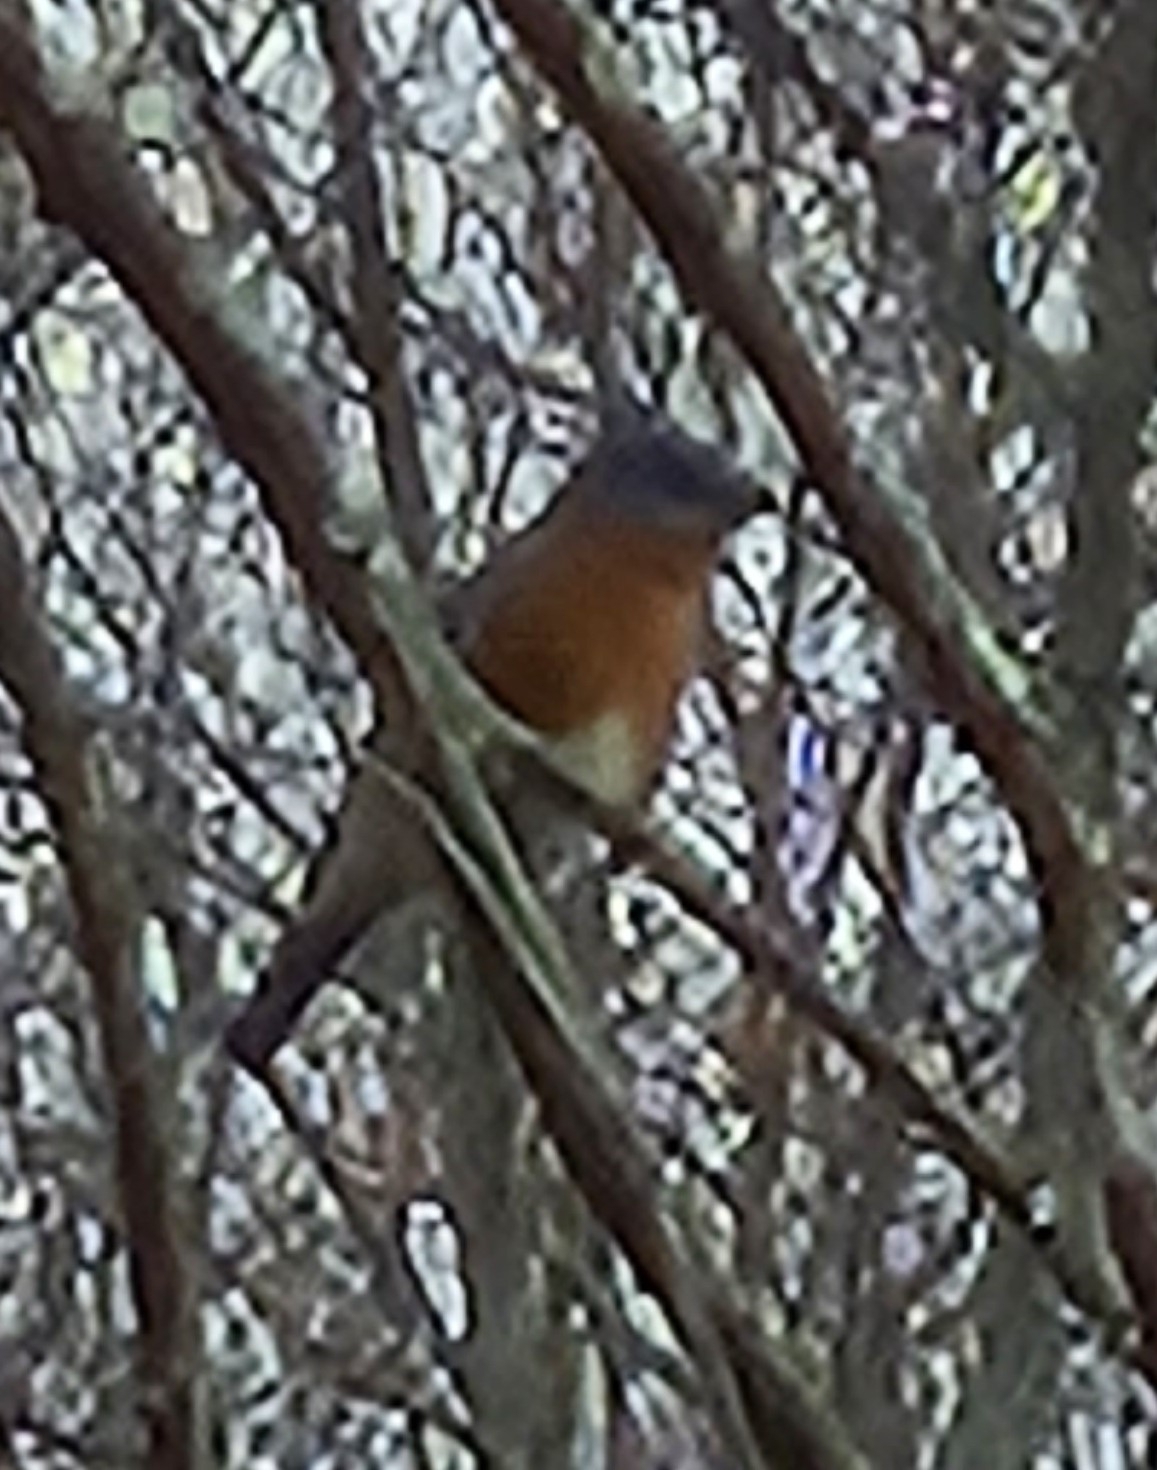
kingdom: Animalia
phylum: Chordata
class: Aves
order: Passeriformes
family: Turdidae
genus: Sialia
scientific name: Sialia sialis
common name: Eastern bluebird
